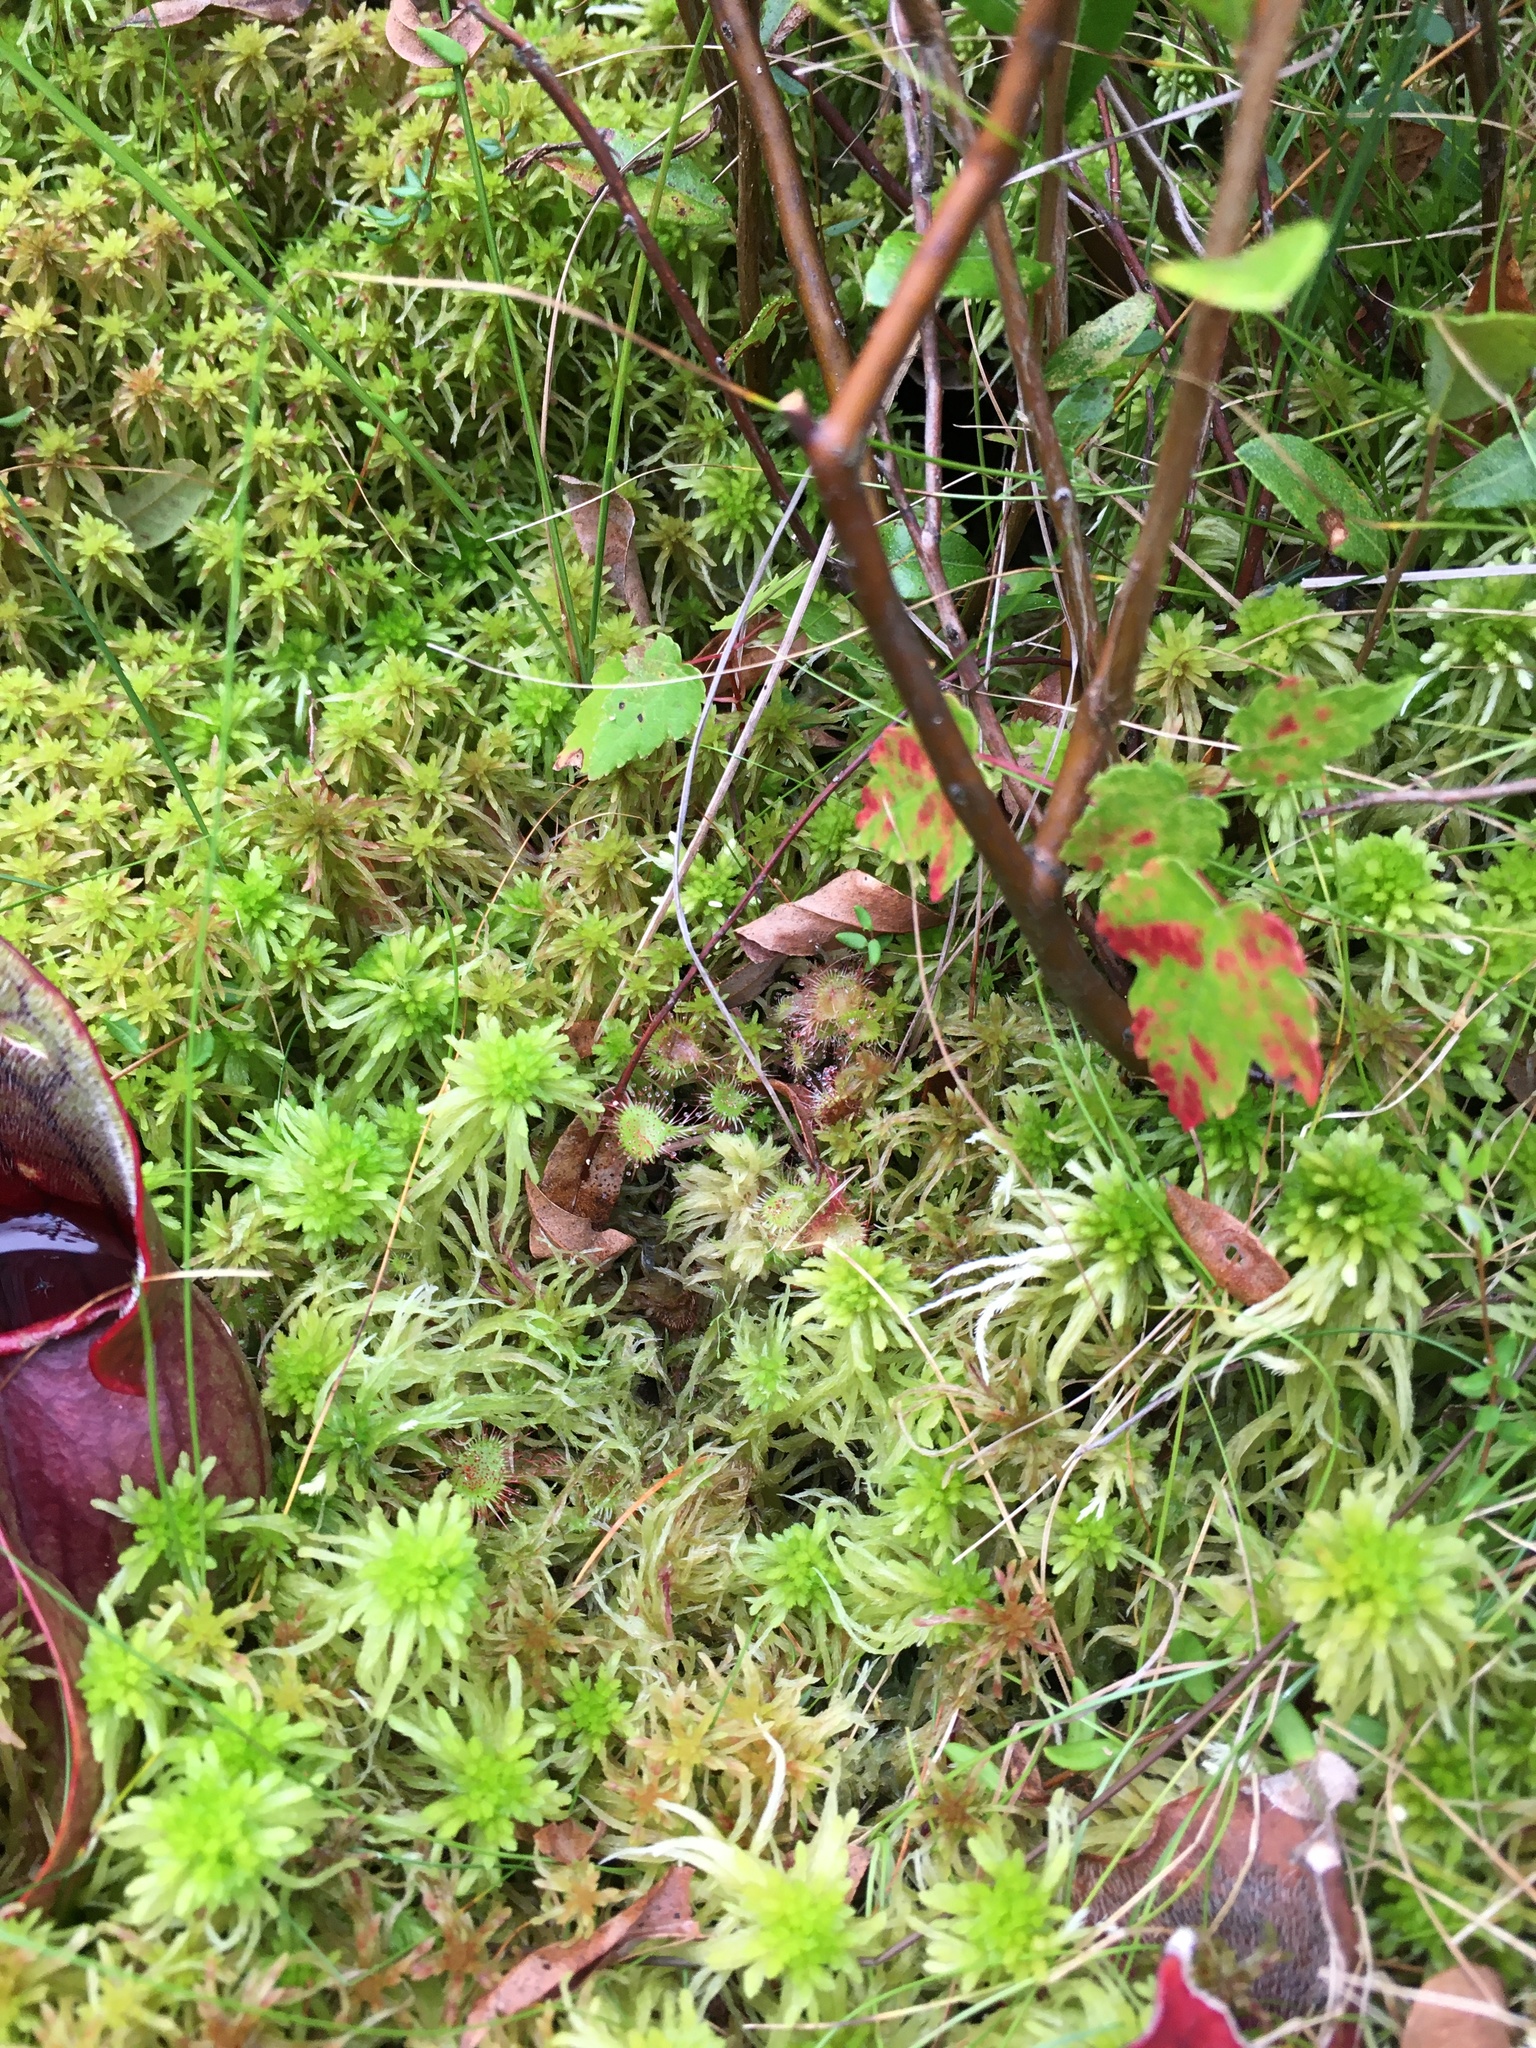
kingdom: Plantae
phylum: Tracheophyta
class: Magnoliopsida
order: Caryophyllales
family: Droseraceae
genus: Drosera
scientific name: Drosera rotundifolia
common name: Round-leaved sundew
